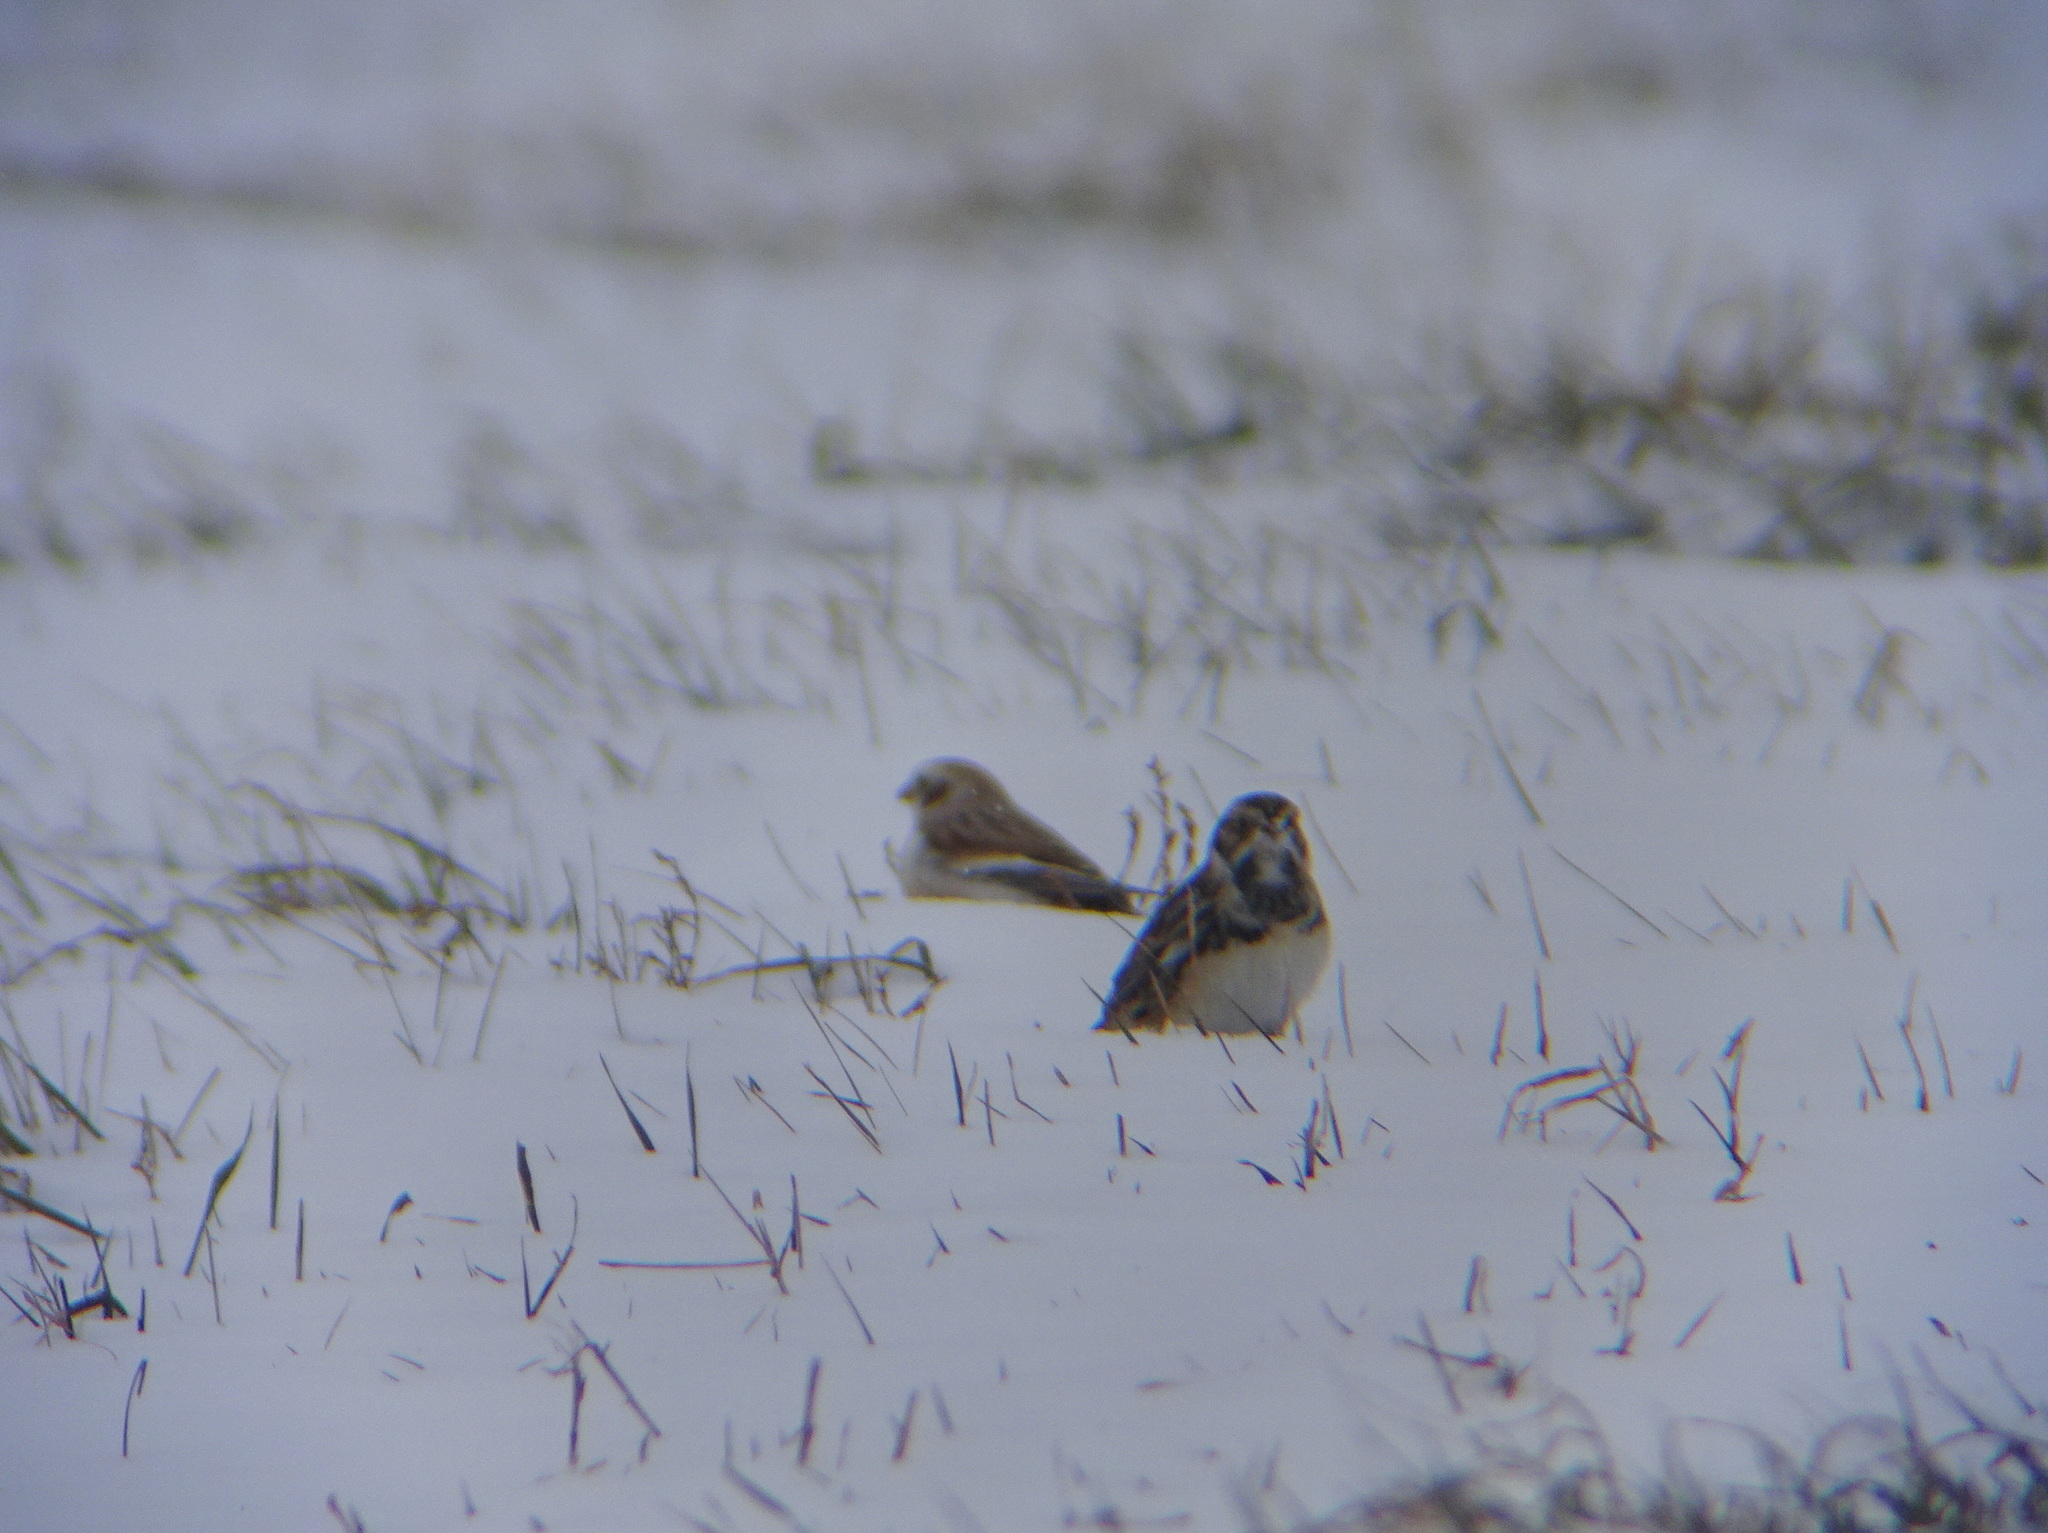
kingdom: Animalia
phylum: Chordata
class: Aves
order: Passeriformes
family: Calcariidae
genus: Calcarius
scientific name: Calcarius lapponicus
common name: Lapland longspur
